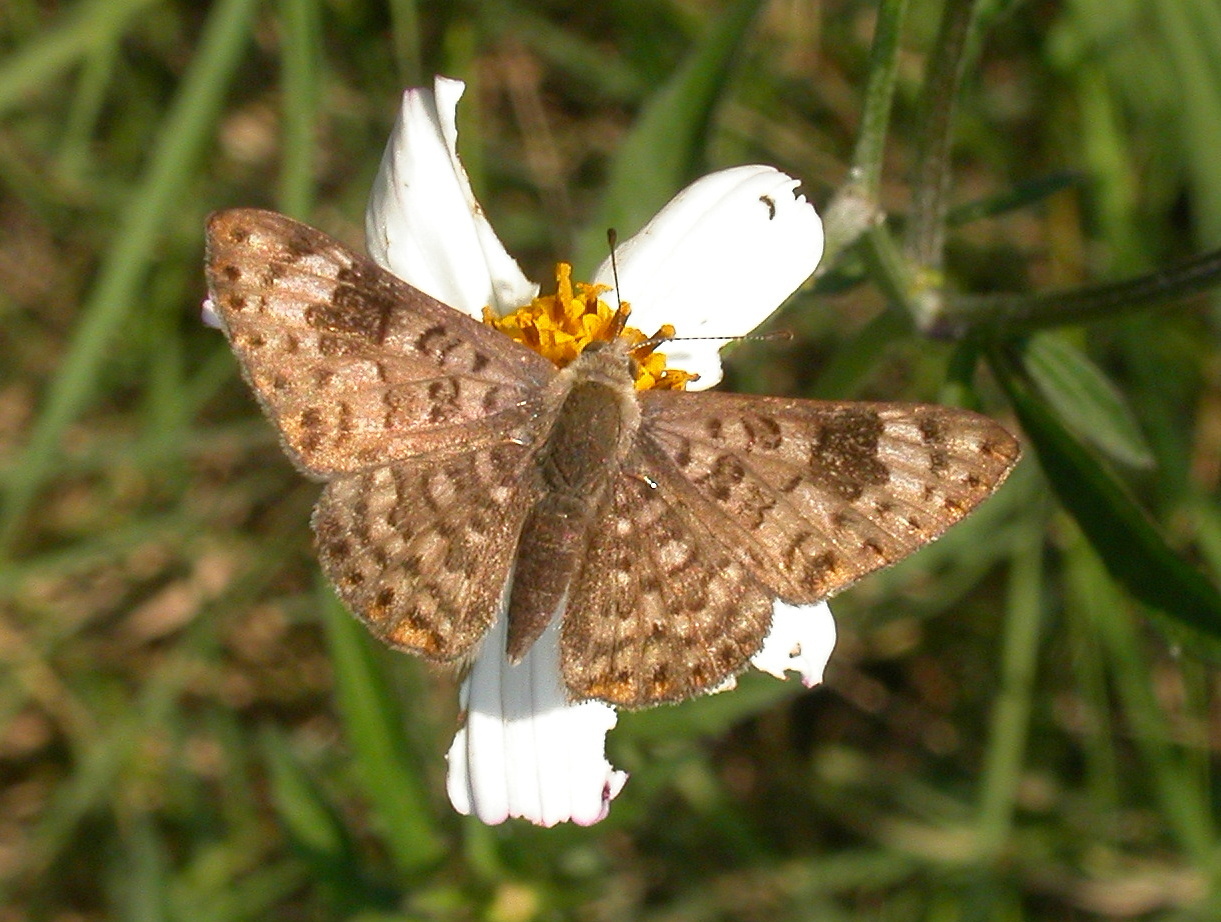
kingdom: Animalia
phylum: Arthropoda
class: Insecta
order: Lepidoptera
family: Riodinidae
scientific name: Riodinidae
